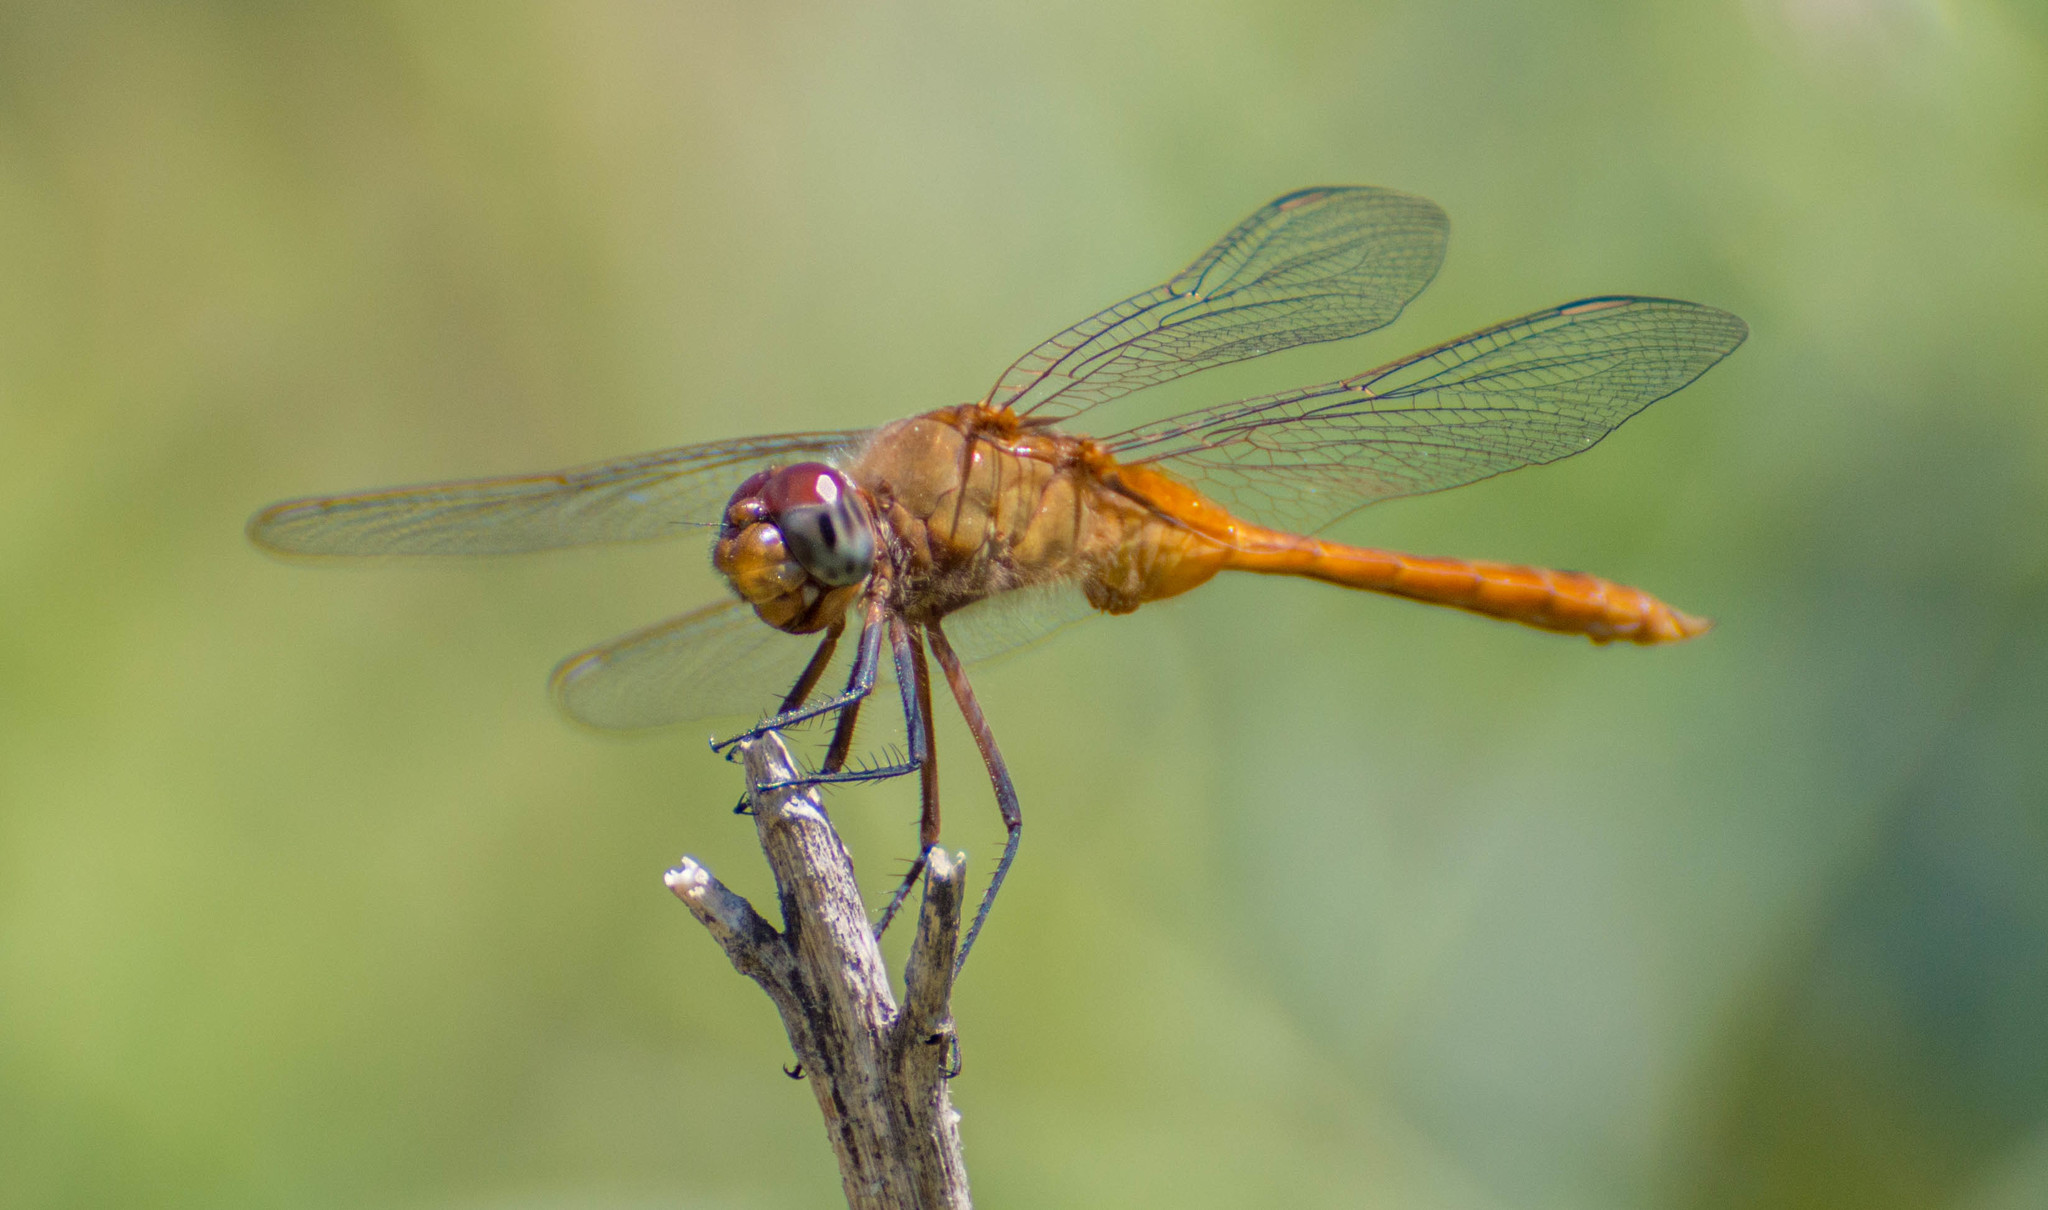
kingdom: Animalia
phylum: Arthropoda
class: Insecta
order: Odonata
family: Libellulidae
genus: Brachymesia
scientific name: Brachymesia furcata
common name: Red-taled pennant
